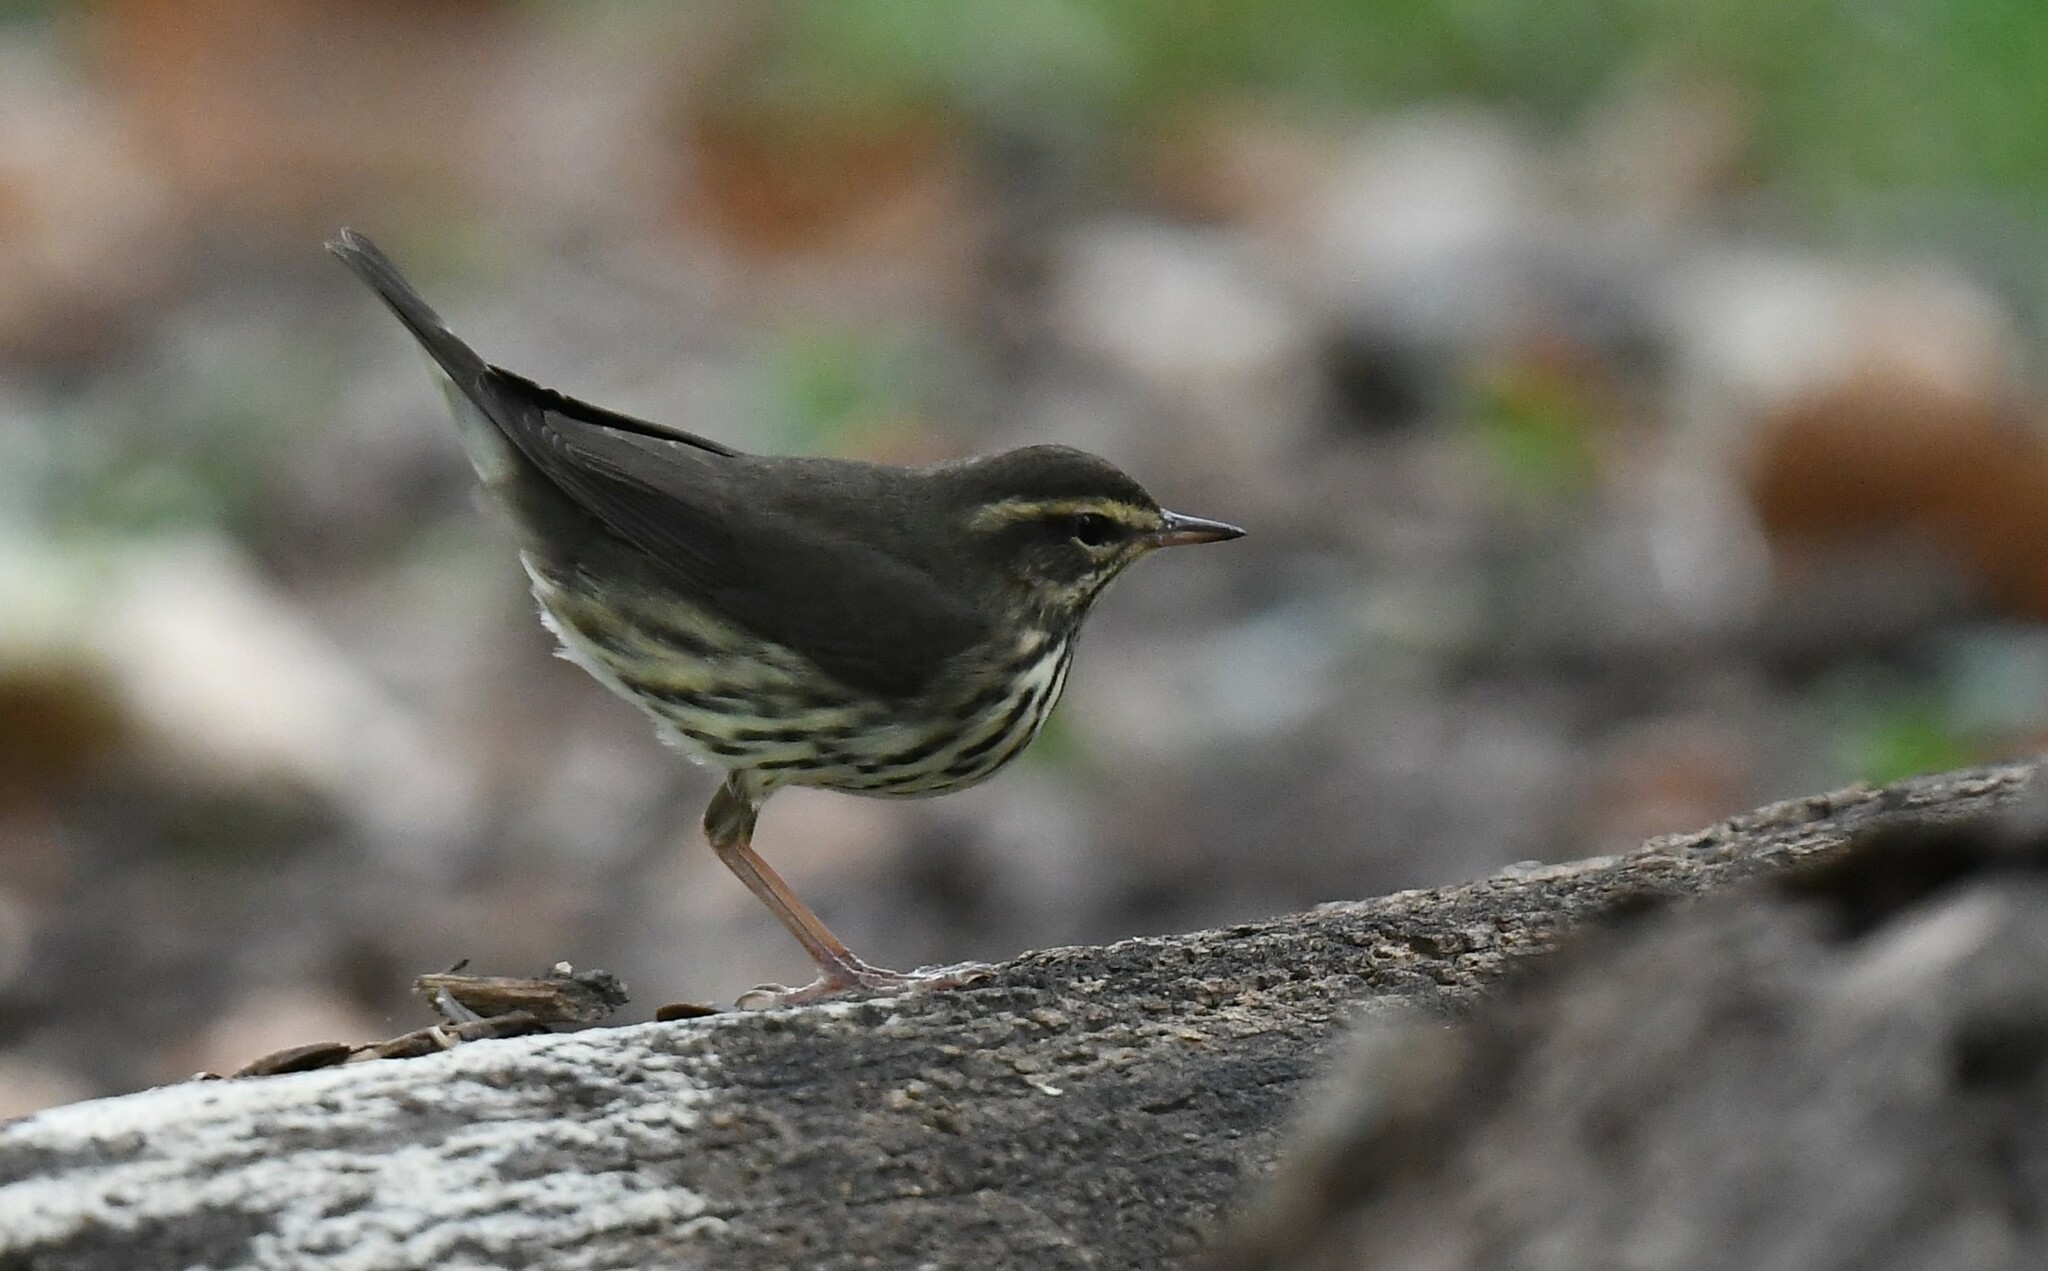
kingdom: Animalia
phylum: Chordata
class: Aves
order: Passeriformes
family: Parulidae
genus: Parkesia
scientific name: Parkesia noveboracensis
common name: Northern waterthrush
